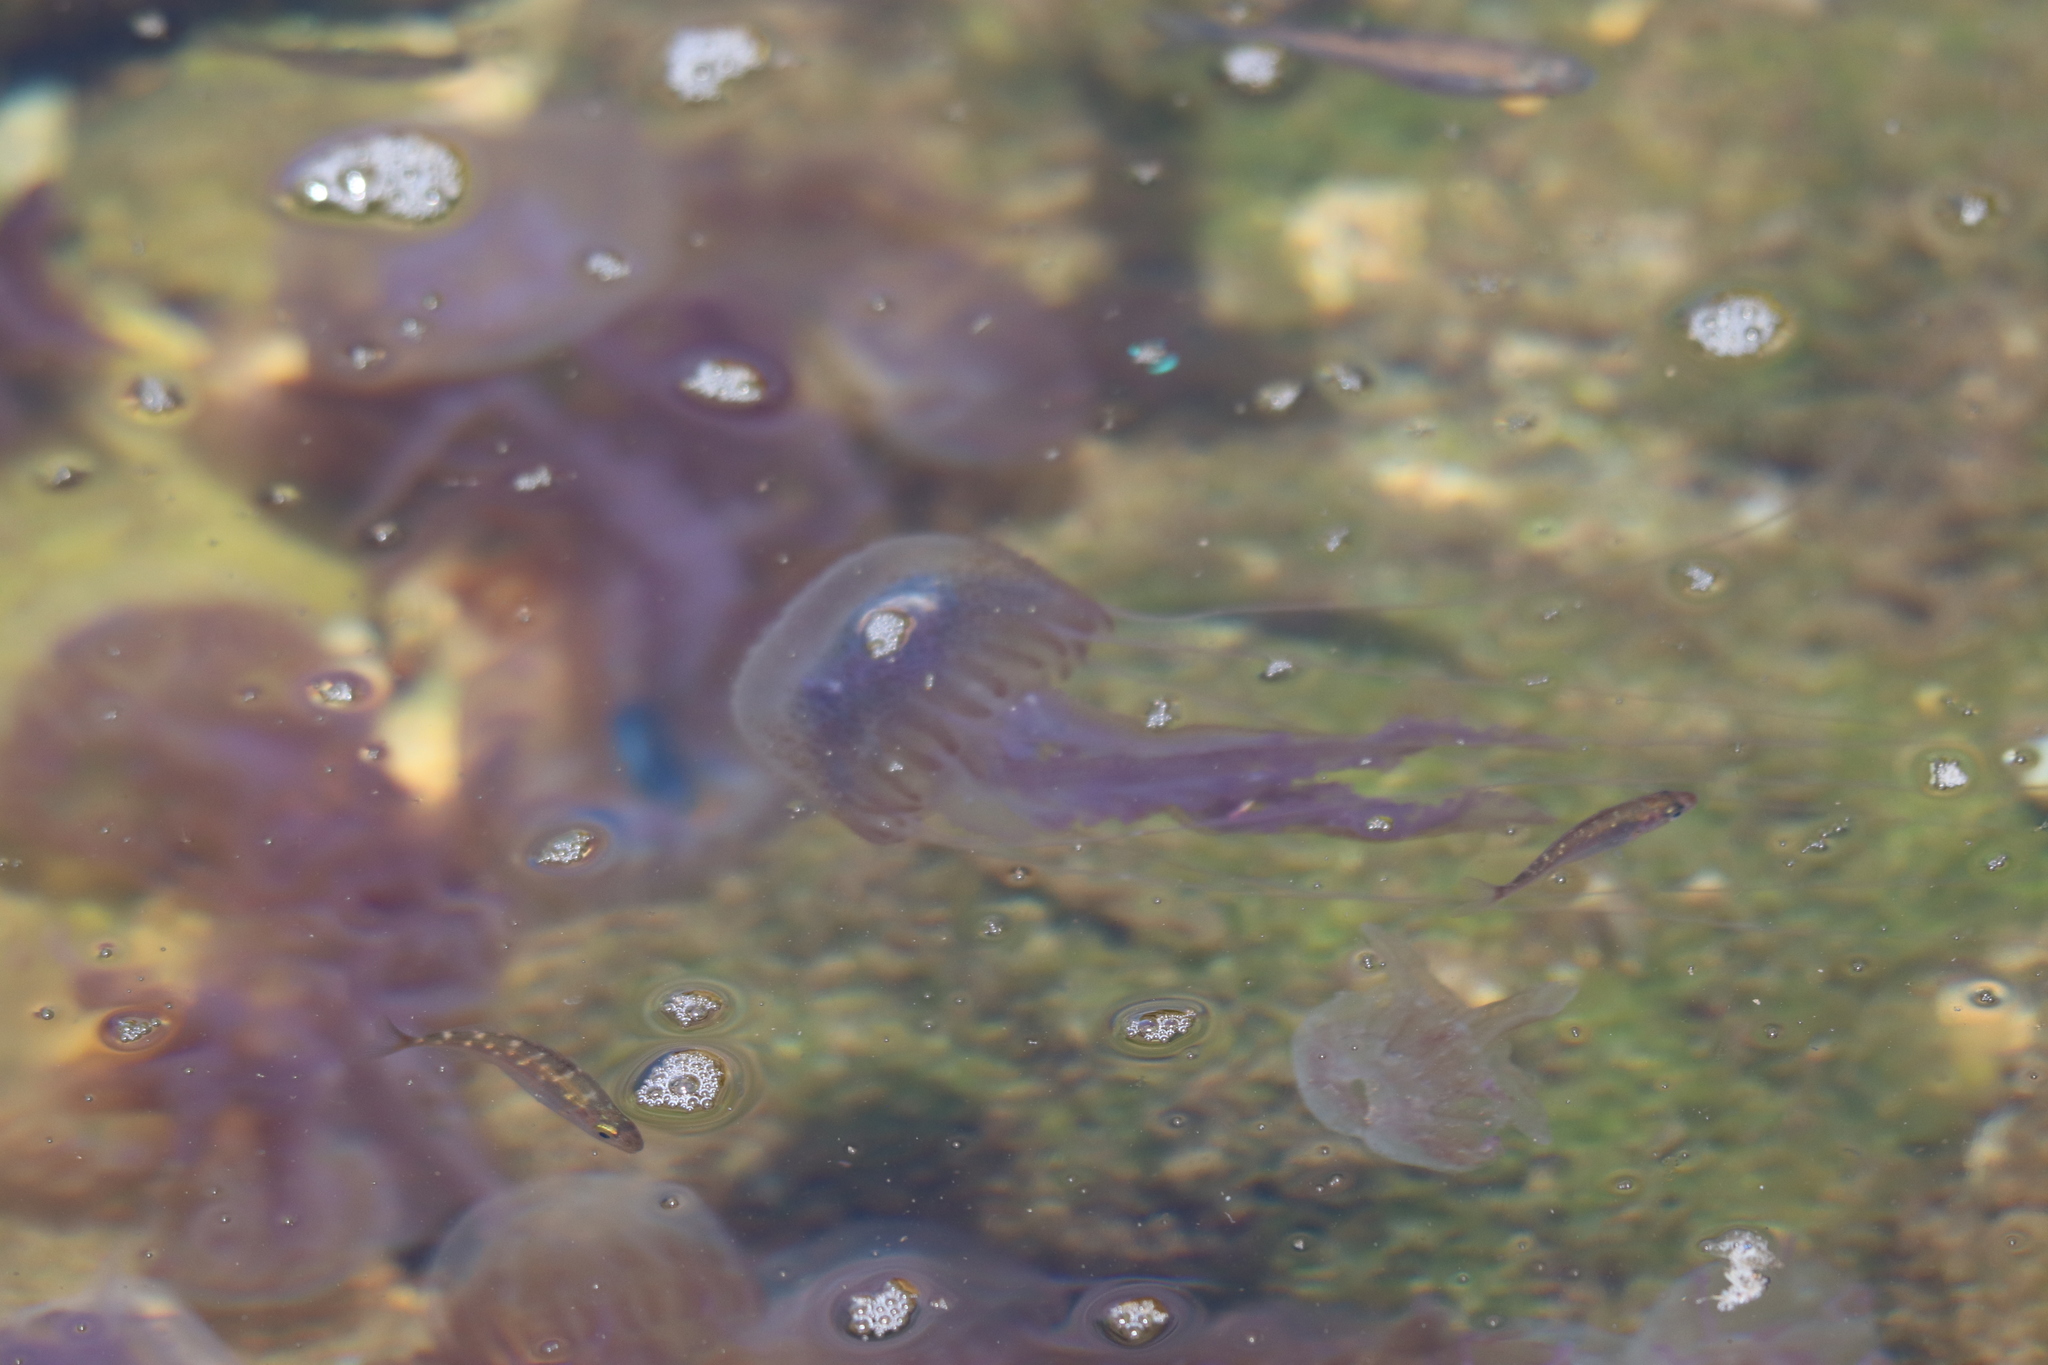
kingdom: Animalia
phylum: Cnidaria
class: Scyphozoa
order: Semaeostomeae
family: Pelagiidae
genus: Pelagia
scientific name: Pelagia noctiluca
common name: Mauve stinger
